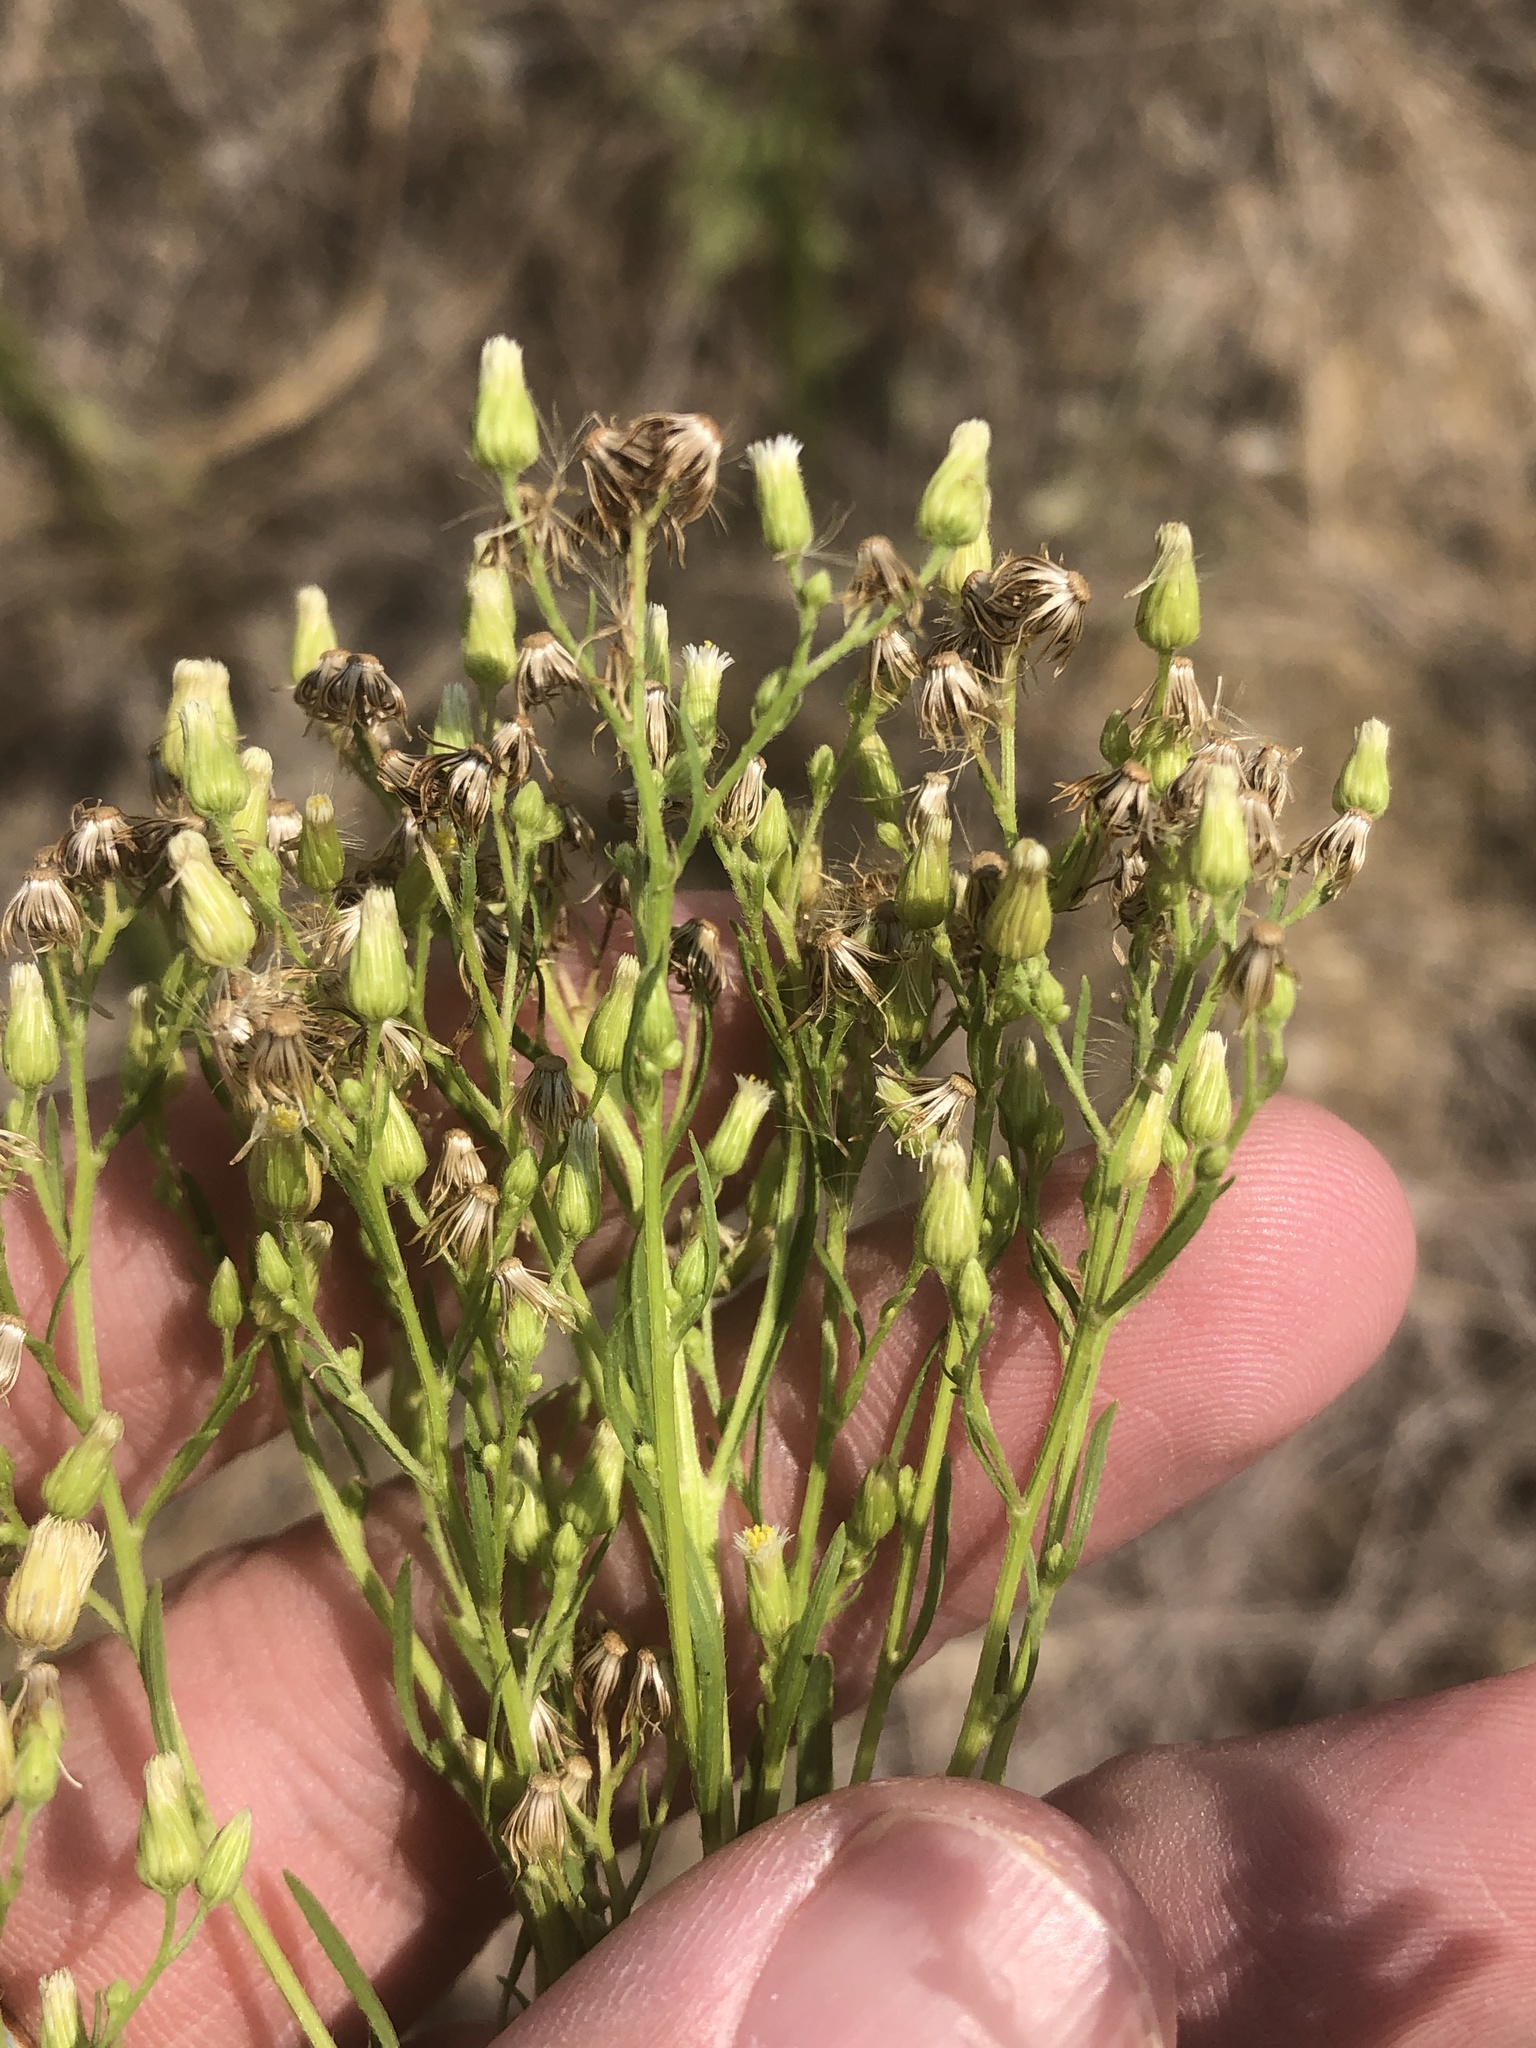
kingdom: Plantae
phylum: Tracheophyta
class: Magnoliopsida
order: Asterales
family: Asteraceae
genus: Erigeron
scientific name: Erigeron canadensis
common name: Canadian fleabane
